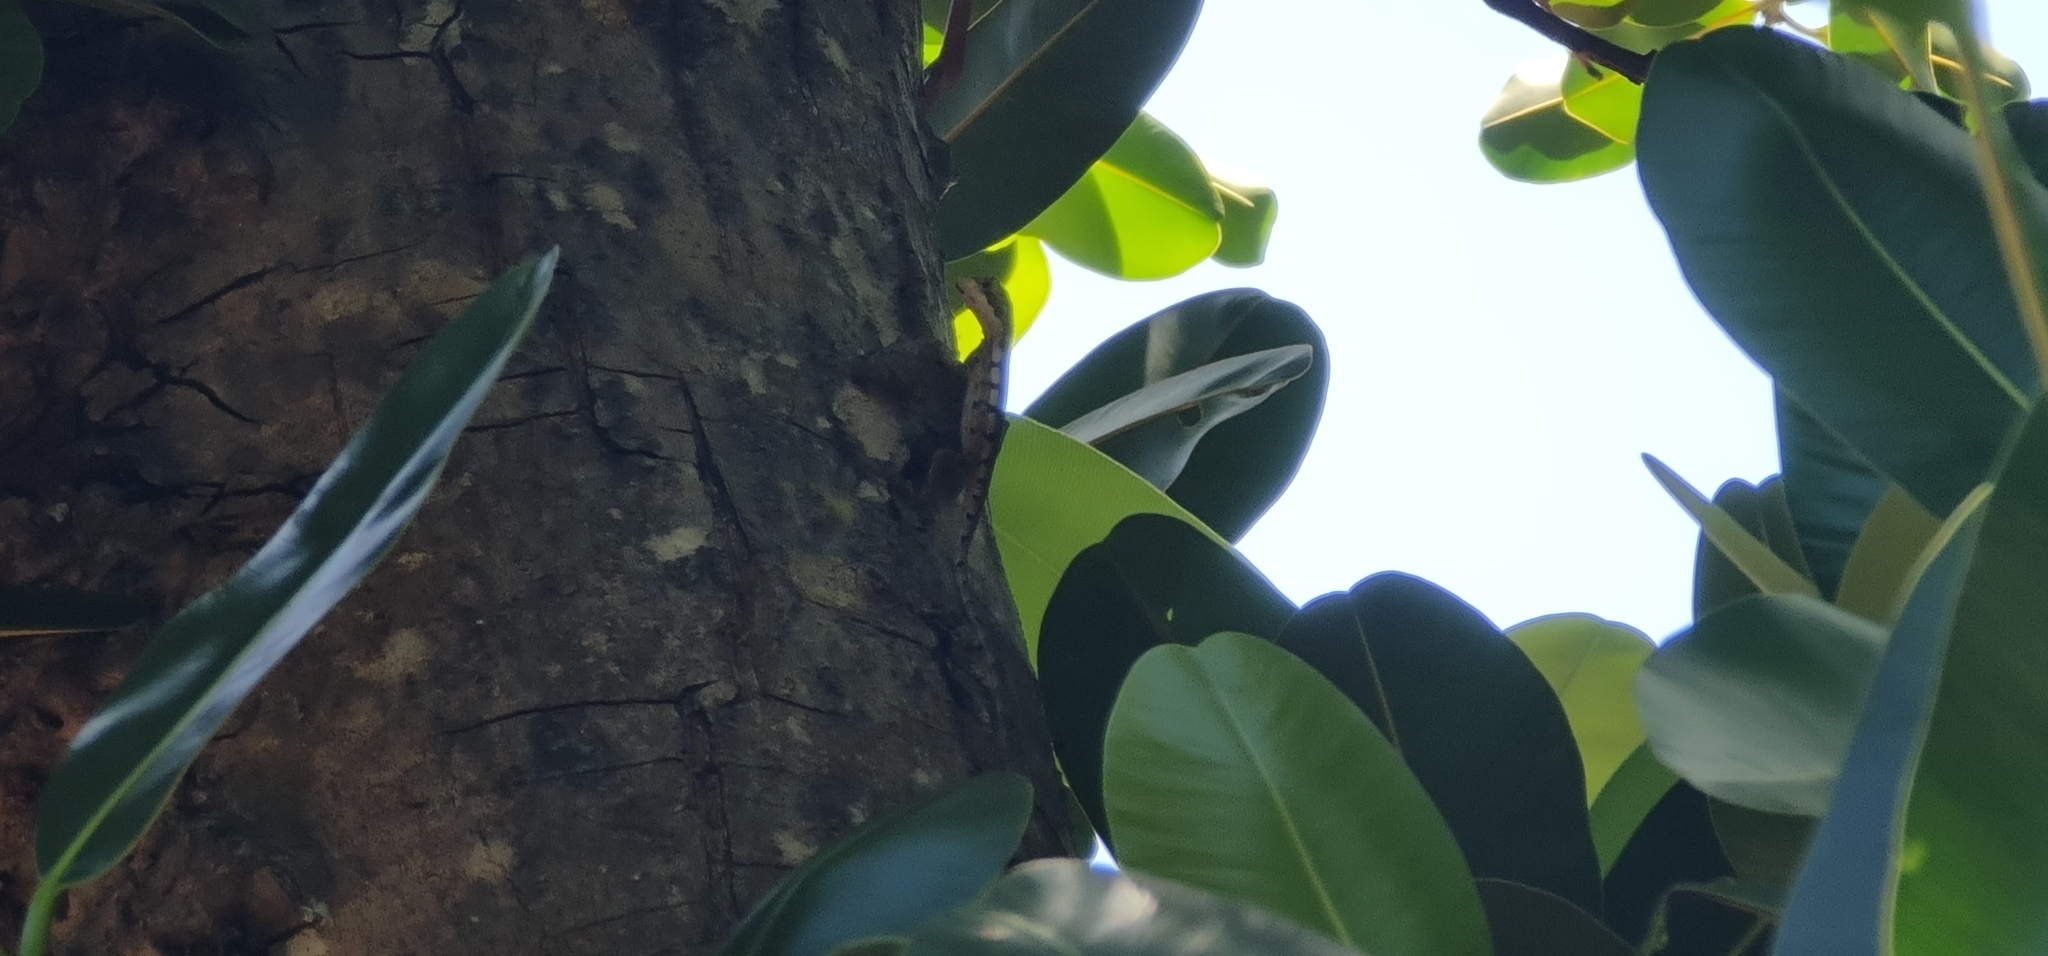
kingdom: Animalia
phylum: Chordata
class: Squamata
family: Agamidae
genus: Tropicagama
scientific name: Tropicagama temporalis
